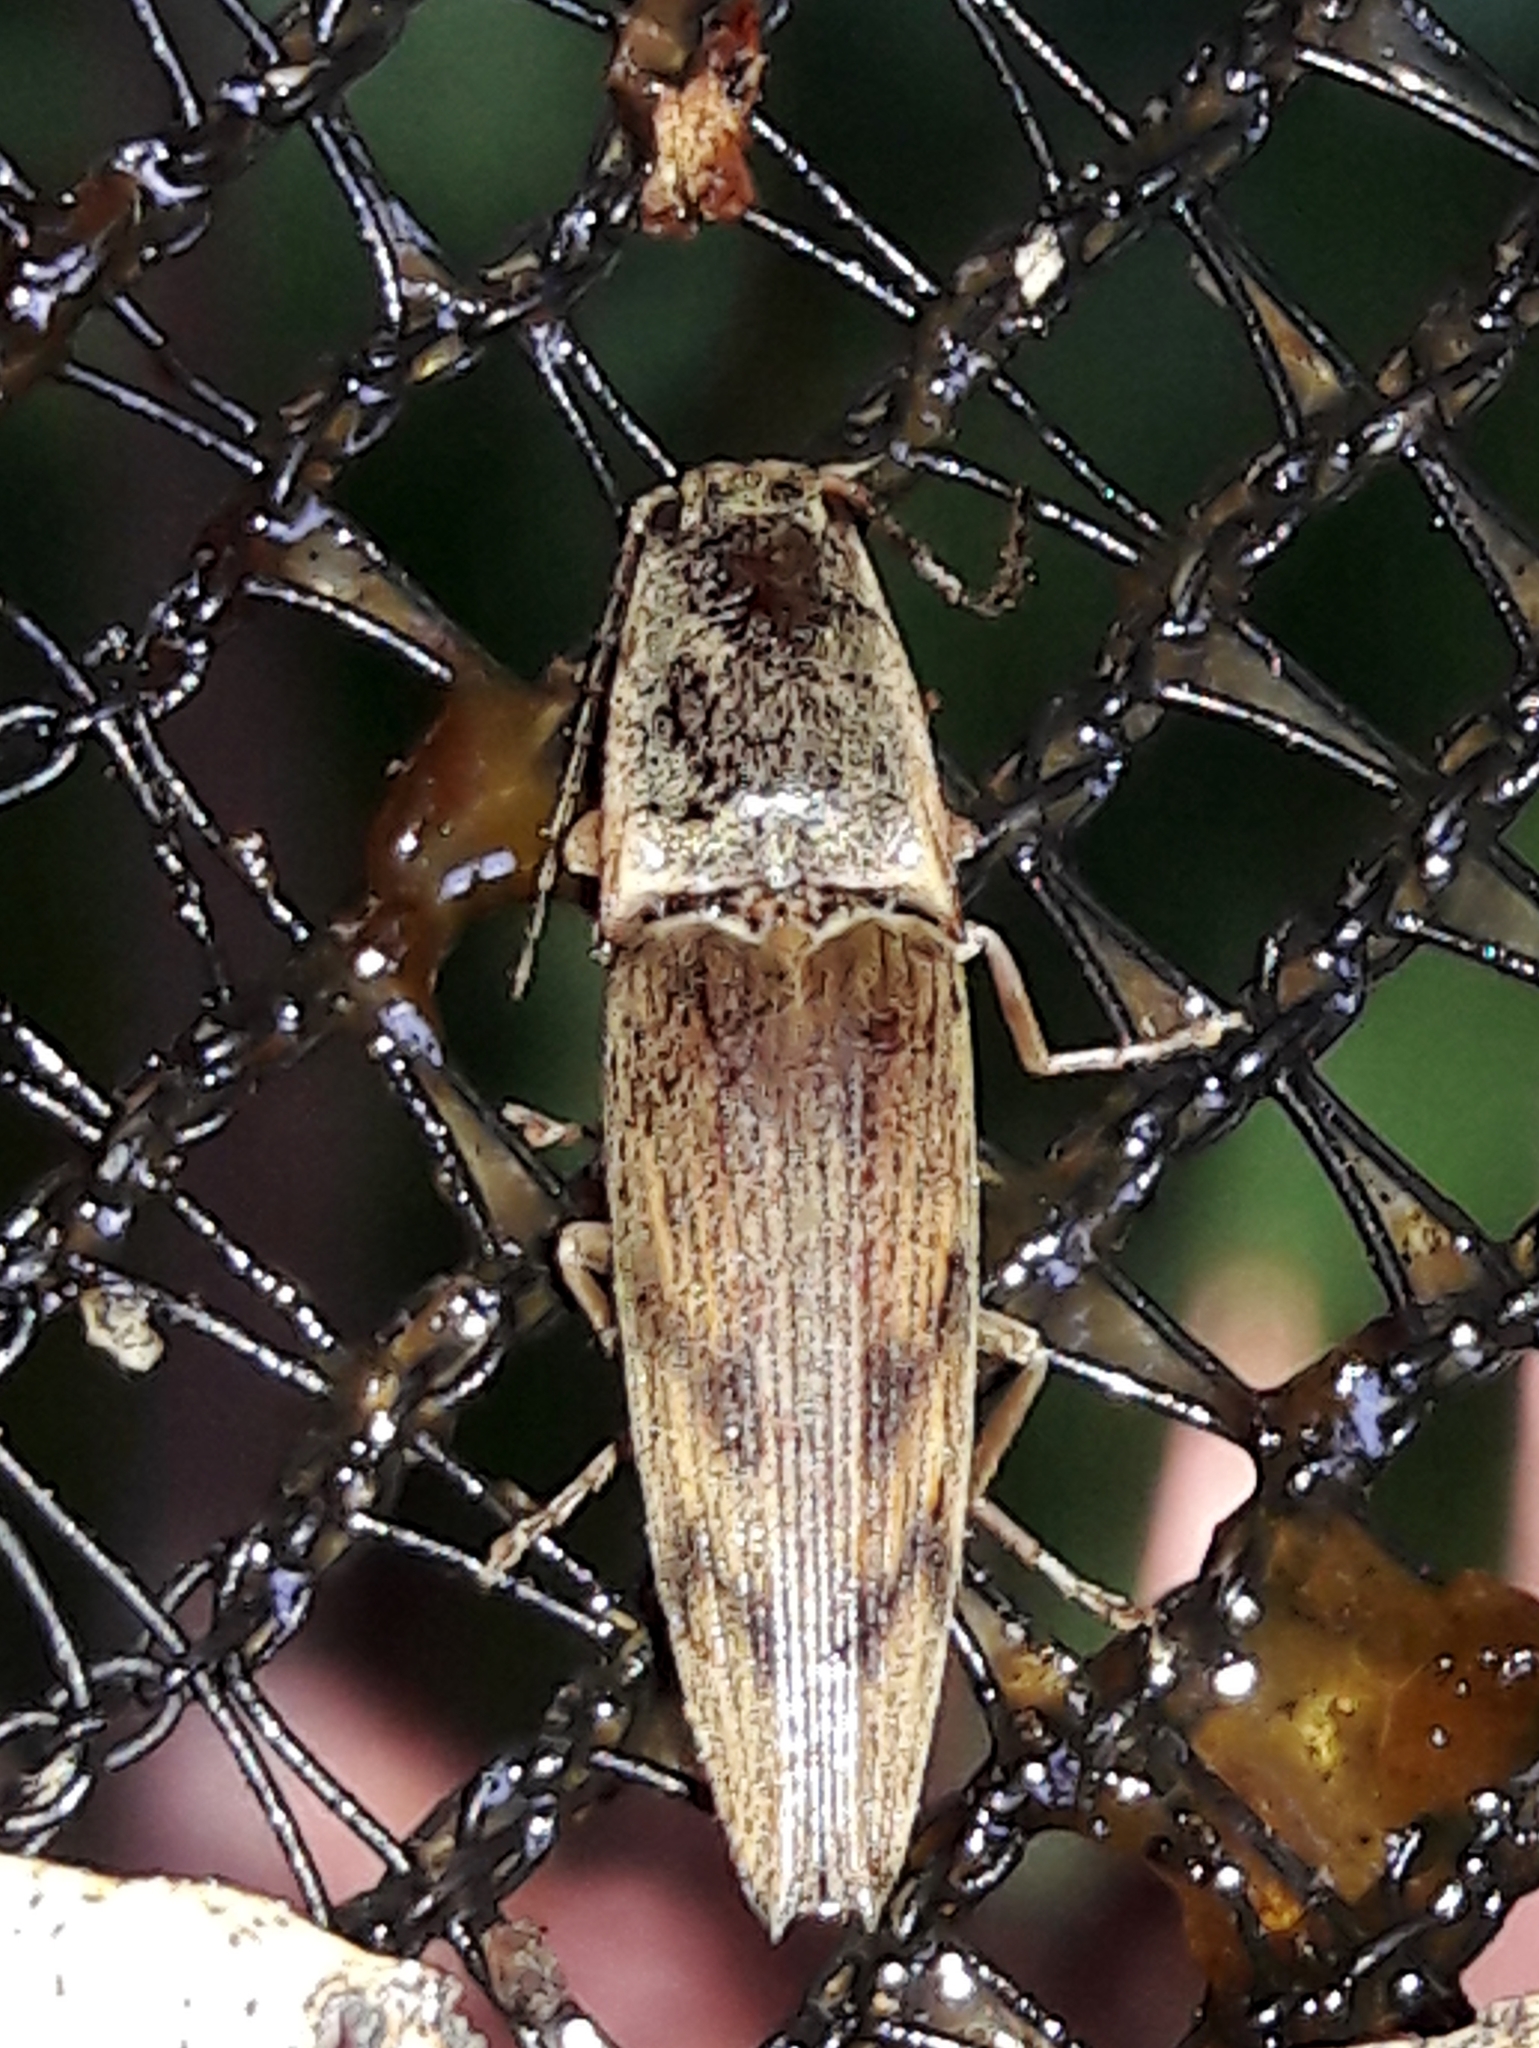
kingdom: Animalia
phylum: Arthropoda
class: Insecta
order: Coleoptera
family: Elateridae
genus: Monocrepidius
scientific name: Monocrepidius
